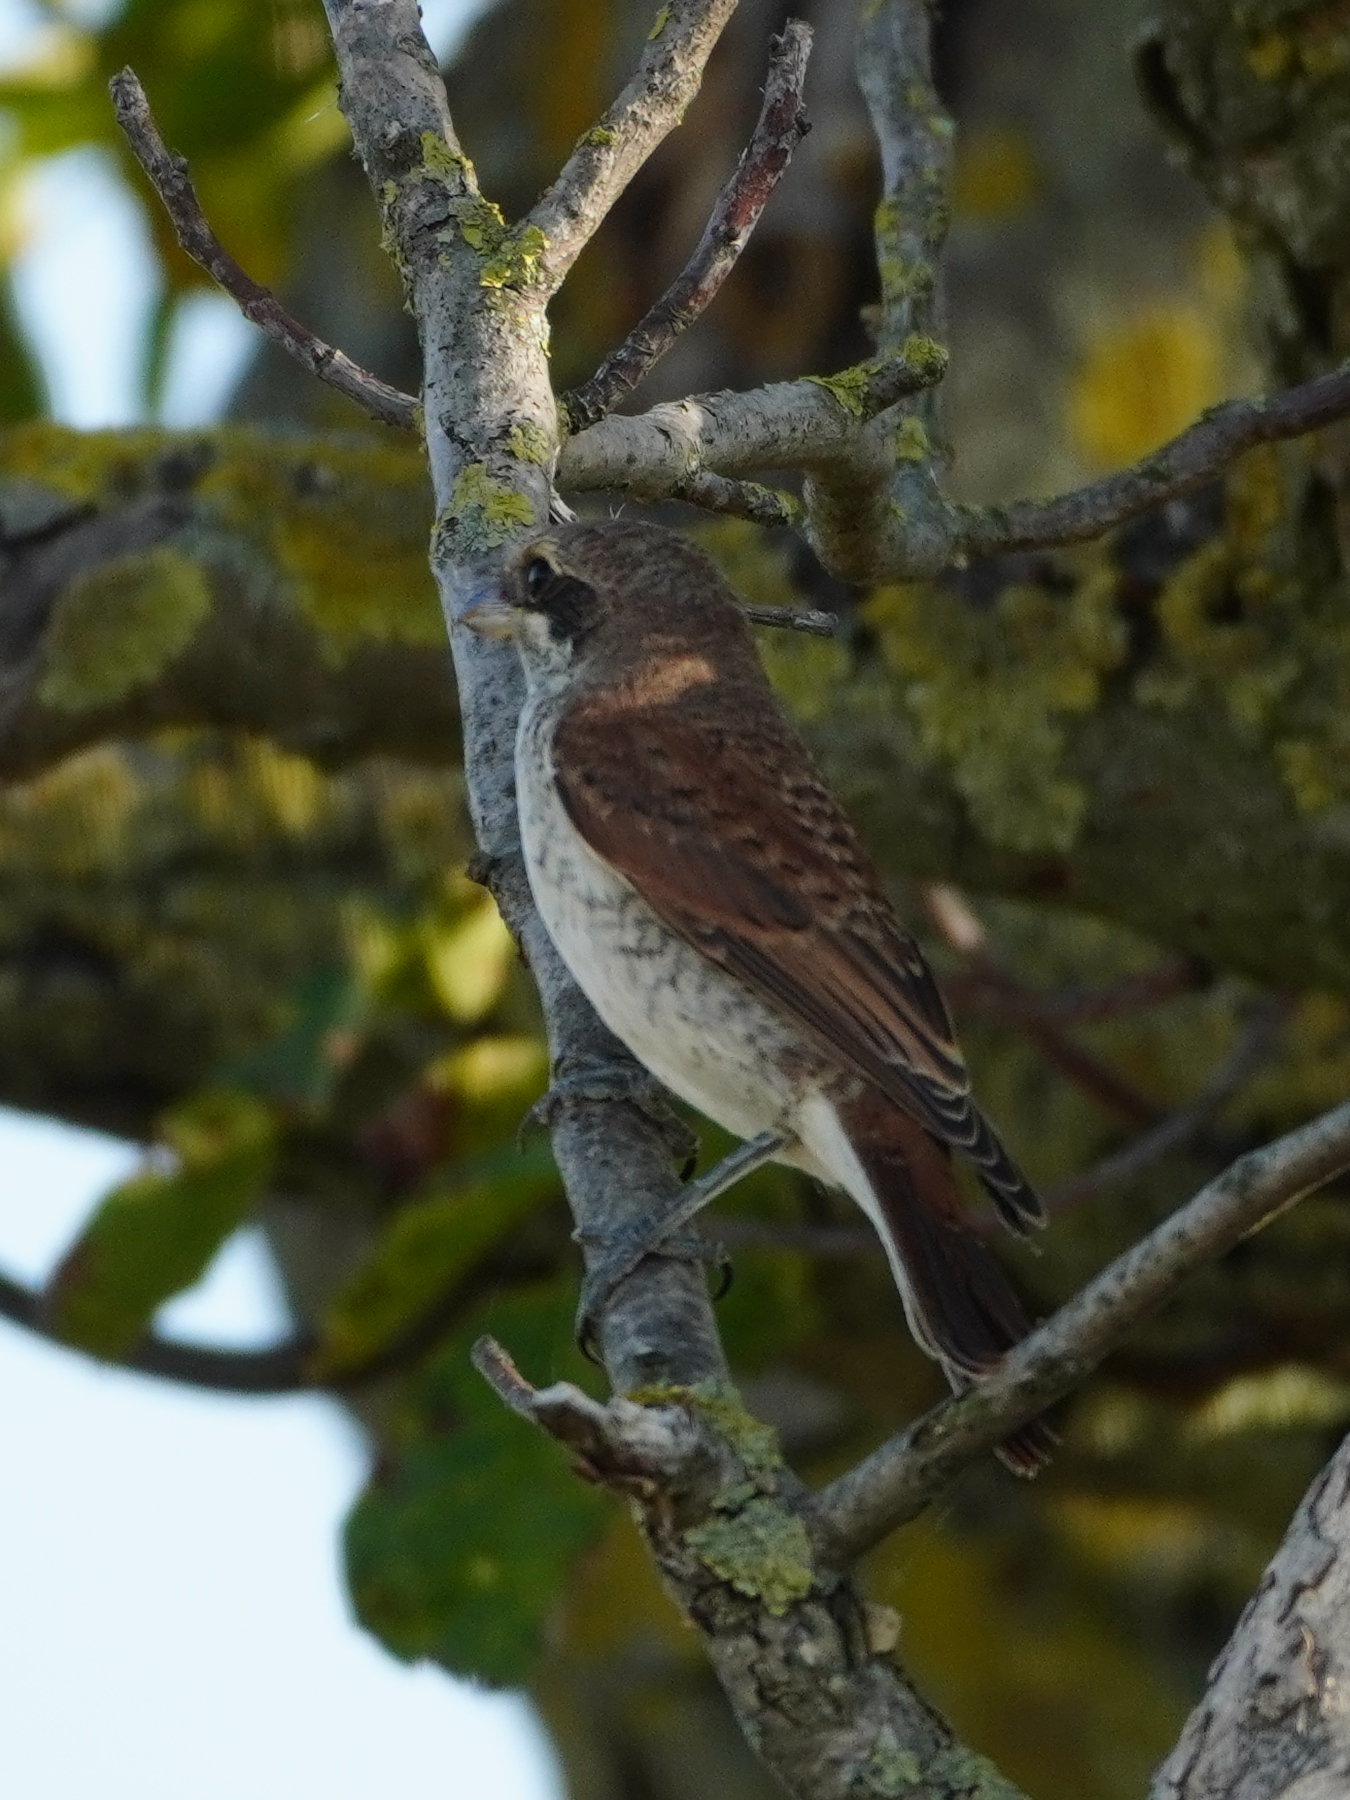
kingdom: Animalia
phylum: Chordata
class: Aves
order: Passeriformes
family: Laniidae
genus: Lanius
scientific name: Lanius collurio
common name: Red-backed shrike
